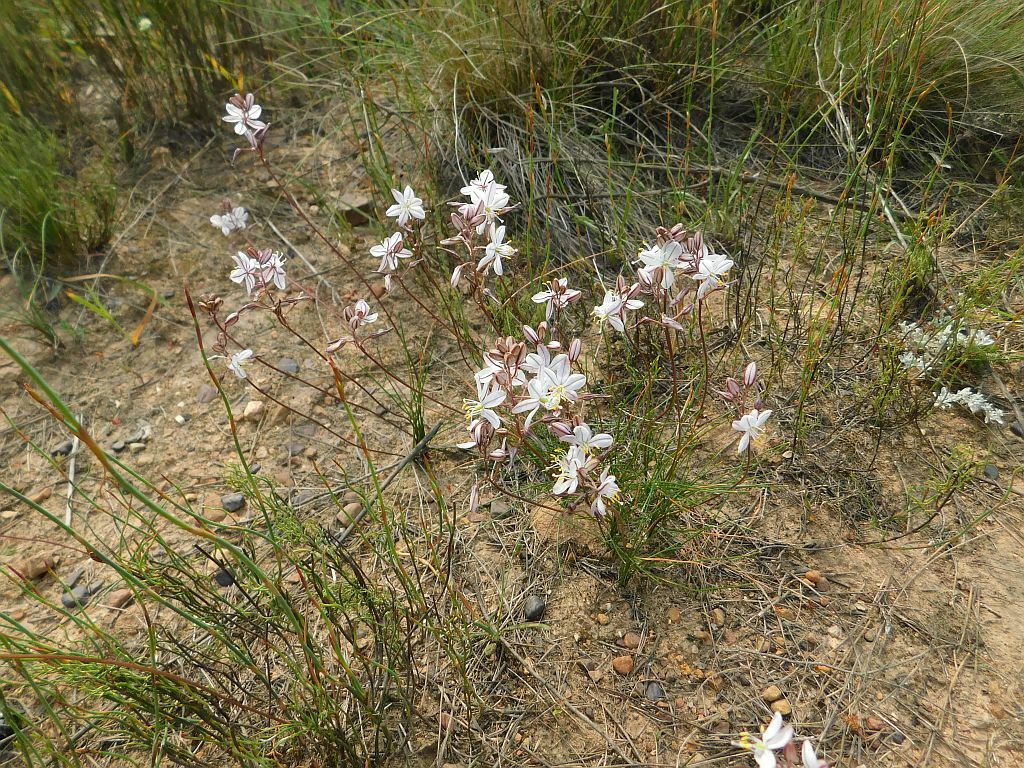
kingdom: Plantae
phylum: Tracheophyta
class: Liliopsida
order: Asparagales
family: Asparagaceae
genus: Drimia
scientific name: Drimia exuviata
